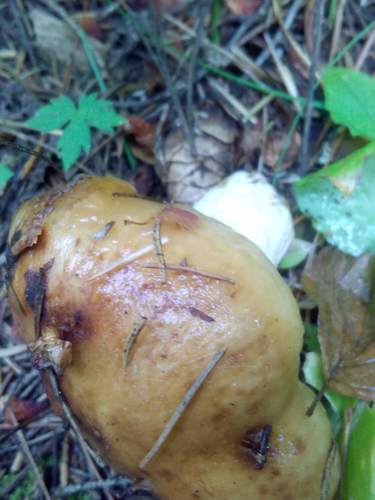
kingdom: Fungi
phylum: Basidiomycota
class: Agaricomycetes
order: Russulales
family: Russulaceae
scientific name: Russulaceae
